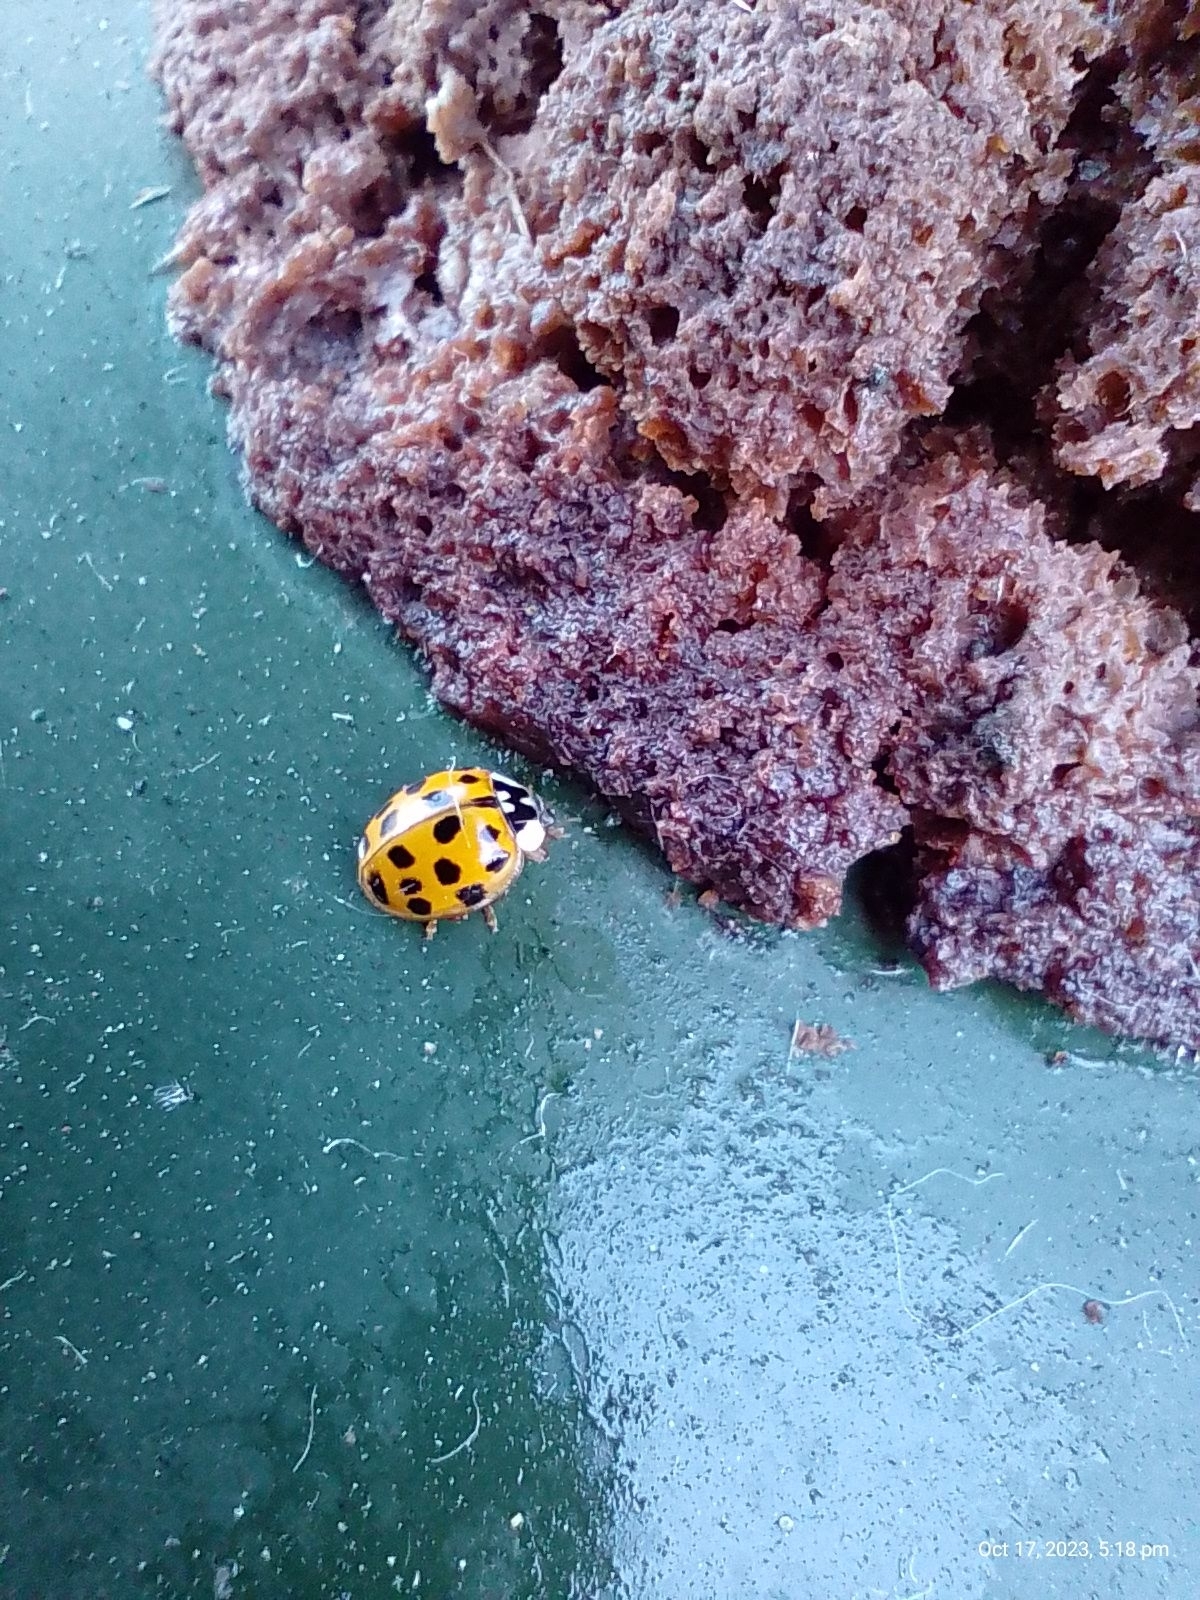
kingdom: Animalia
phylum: Arthropoda
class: Insecta
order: Coleoptera
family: Coccinellidae
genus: Harmonia
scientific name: Harmonia axyridis
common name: Harlequin ladybird
